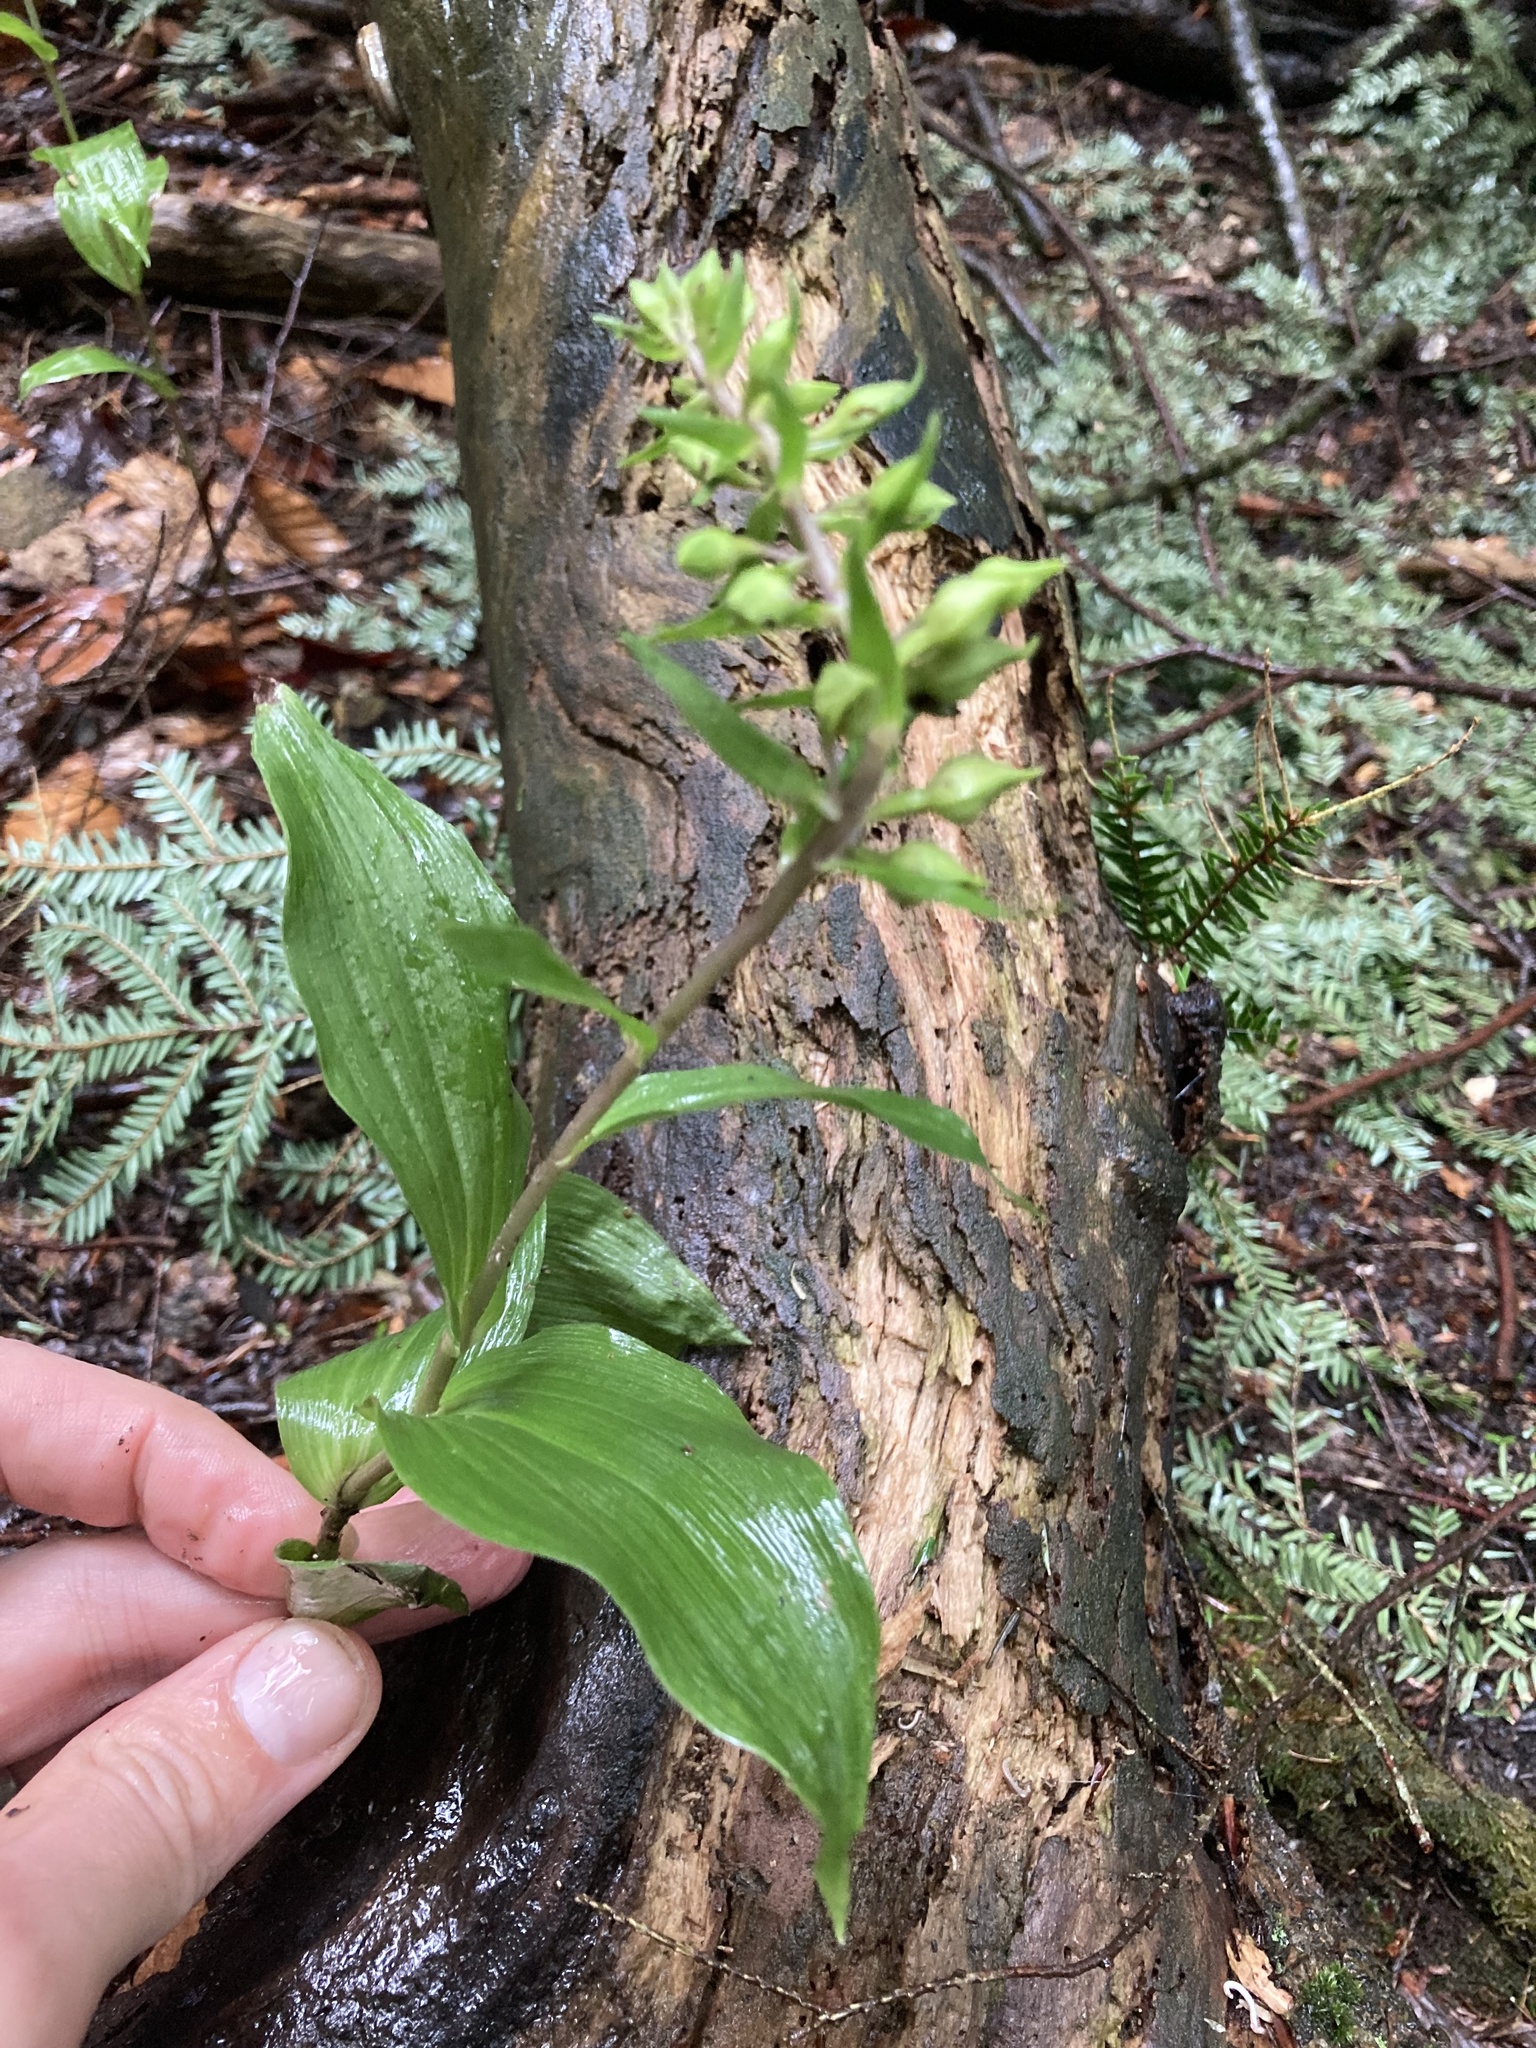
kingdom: Plantae
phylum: Tracheophyta
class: Liliopsida
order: Asparagales
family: Orchidaceae
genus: Epipactis
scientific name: Epipactis helleborine
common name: Broad-leaved helleborine
